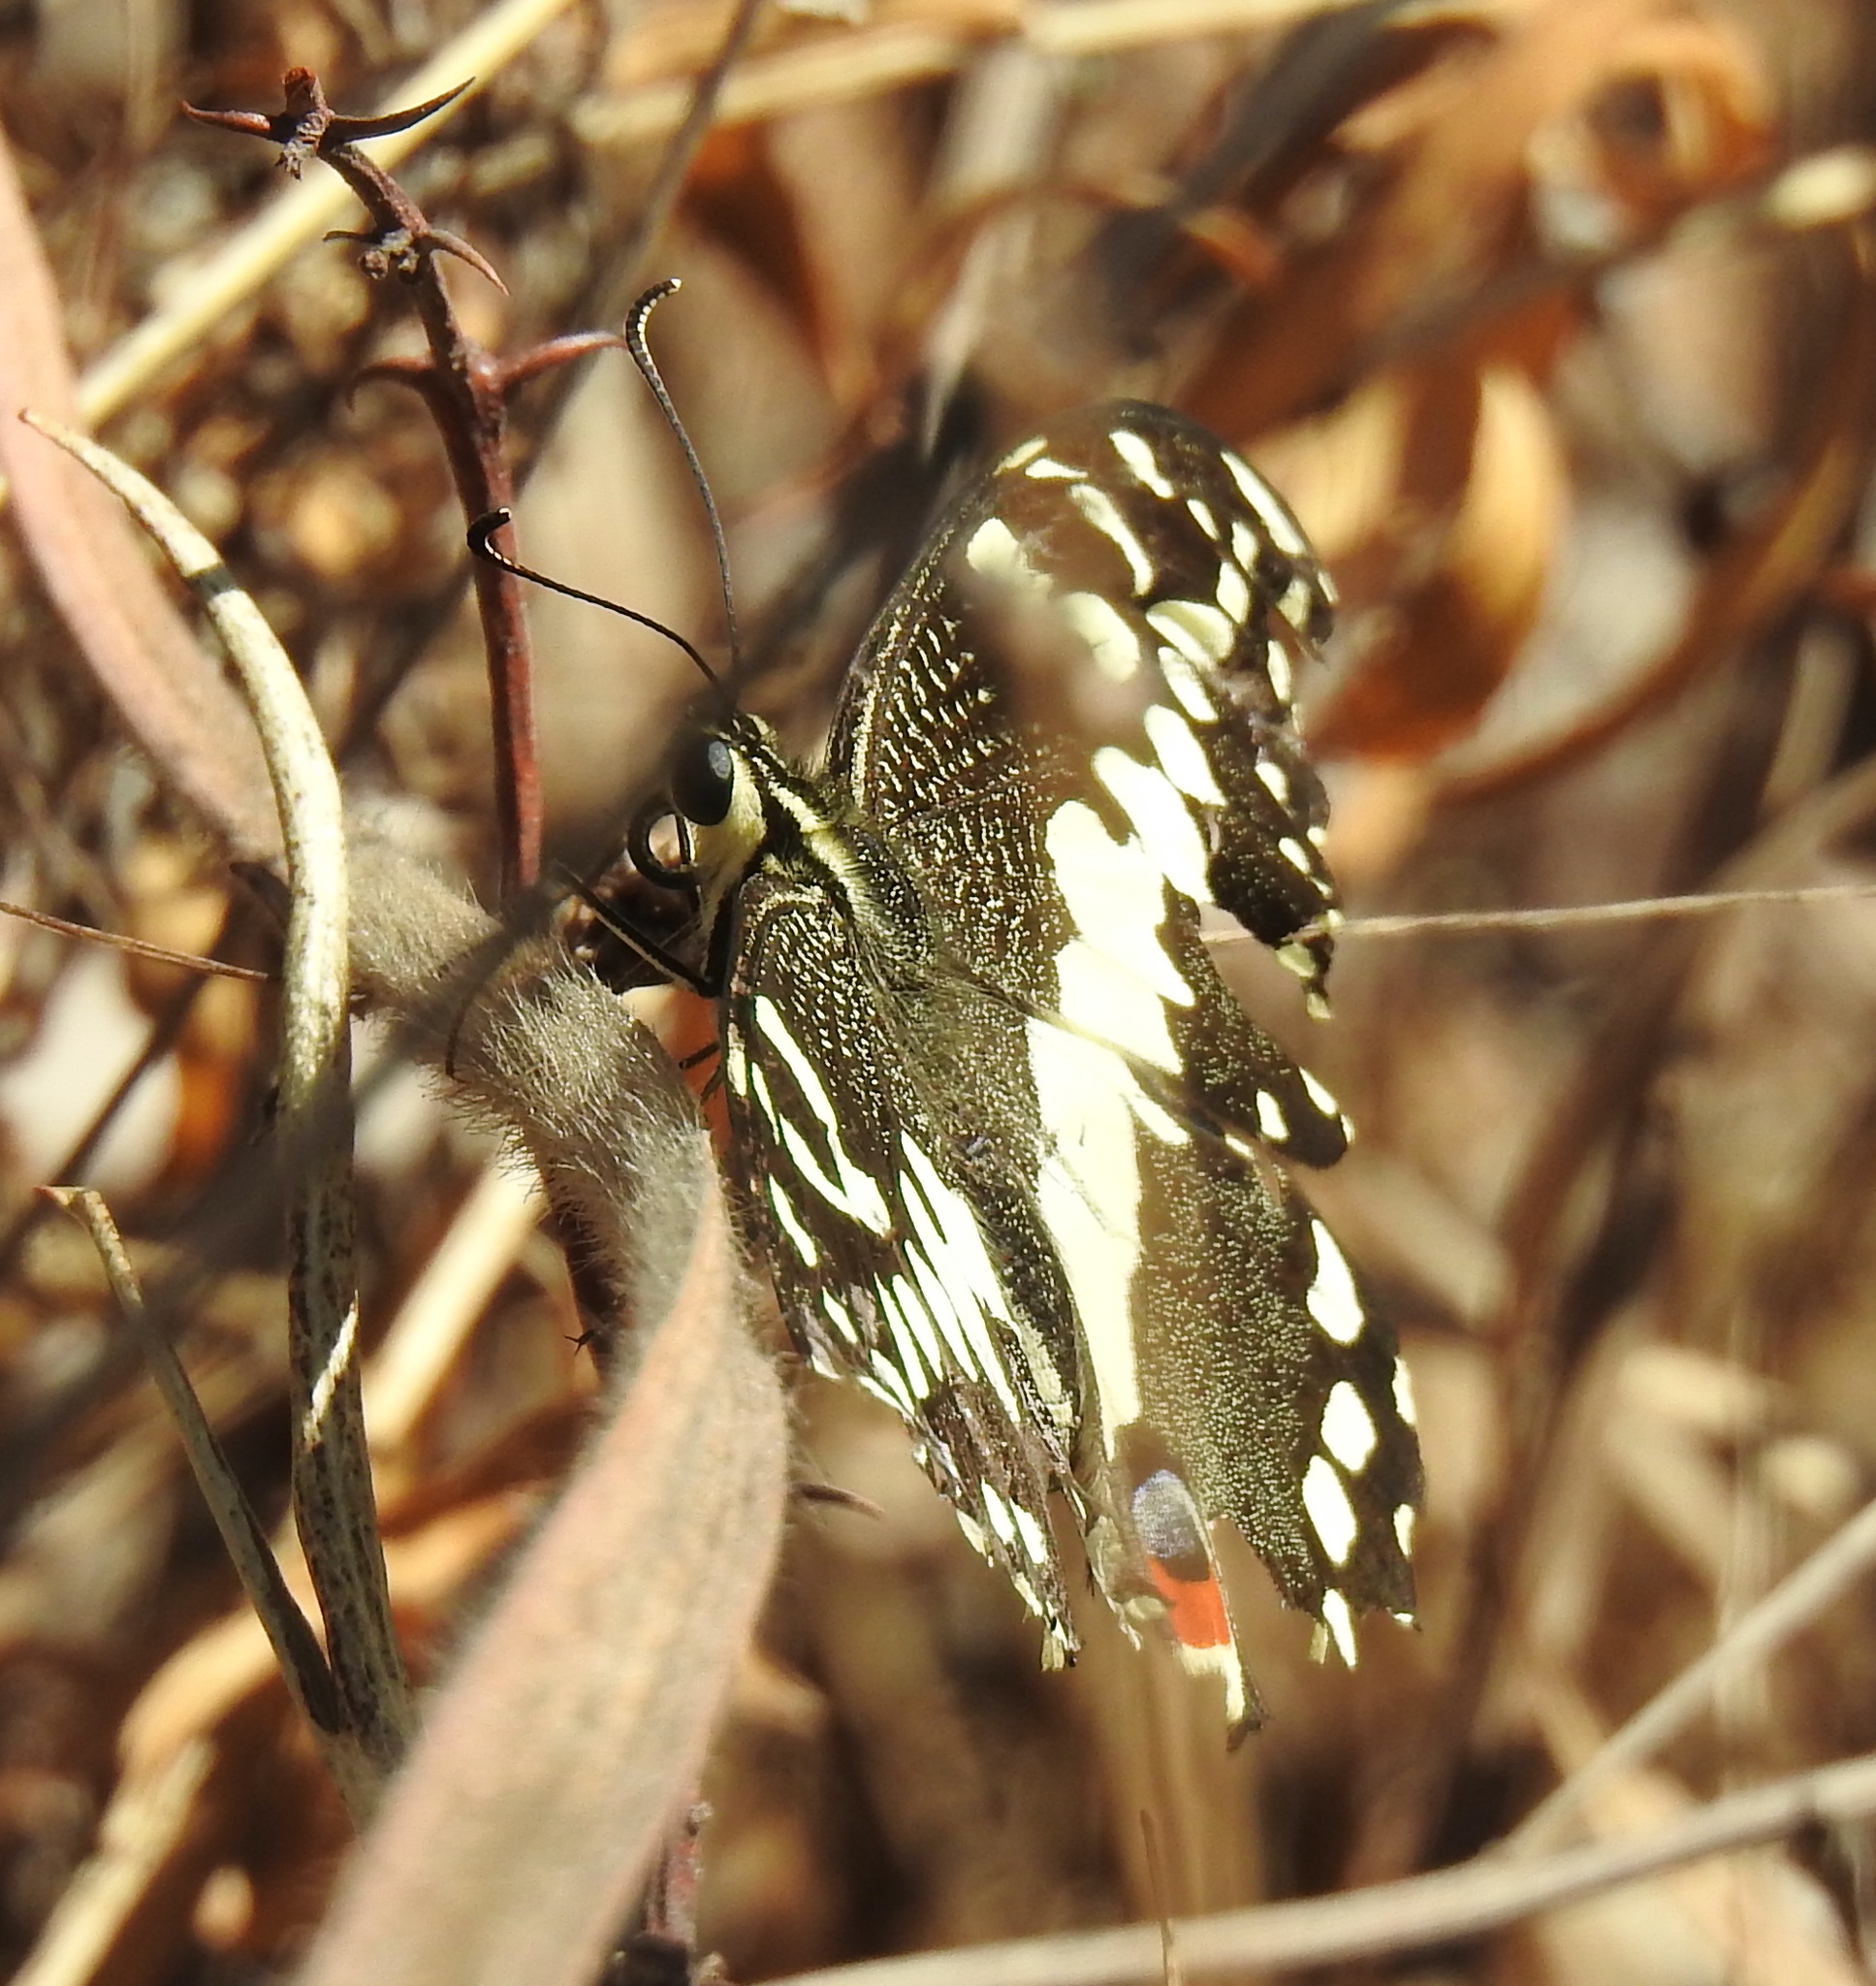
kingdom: Animalia
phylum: Arthropoda
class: Insecta
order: Lepidoptera
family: Papilionidae
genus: Papilio
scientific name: Papilio demodocus
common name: Christmas butterfly
